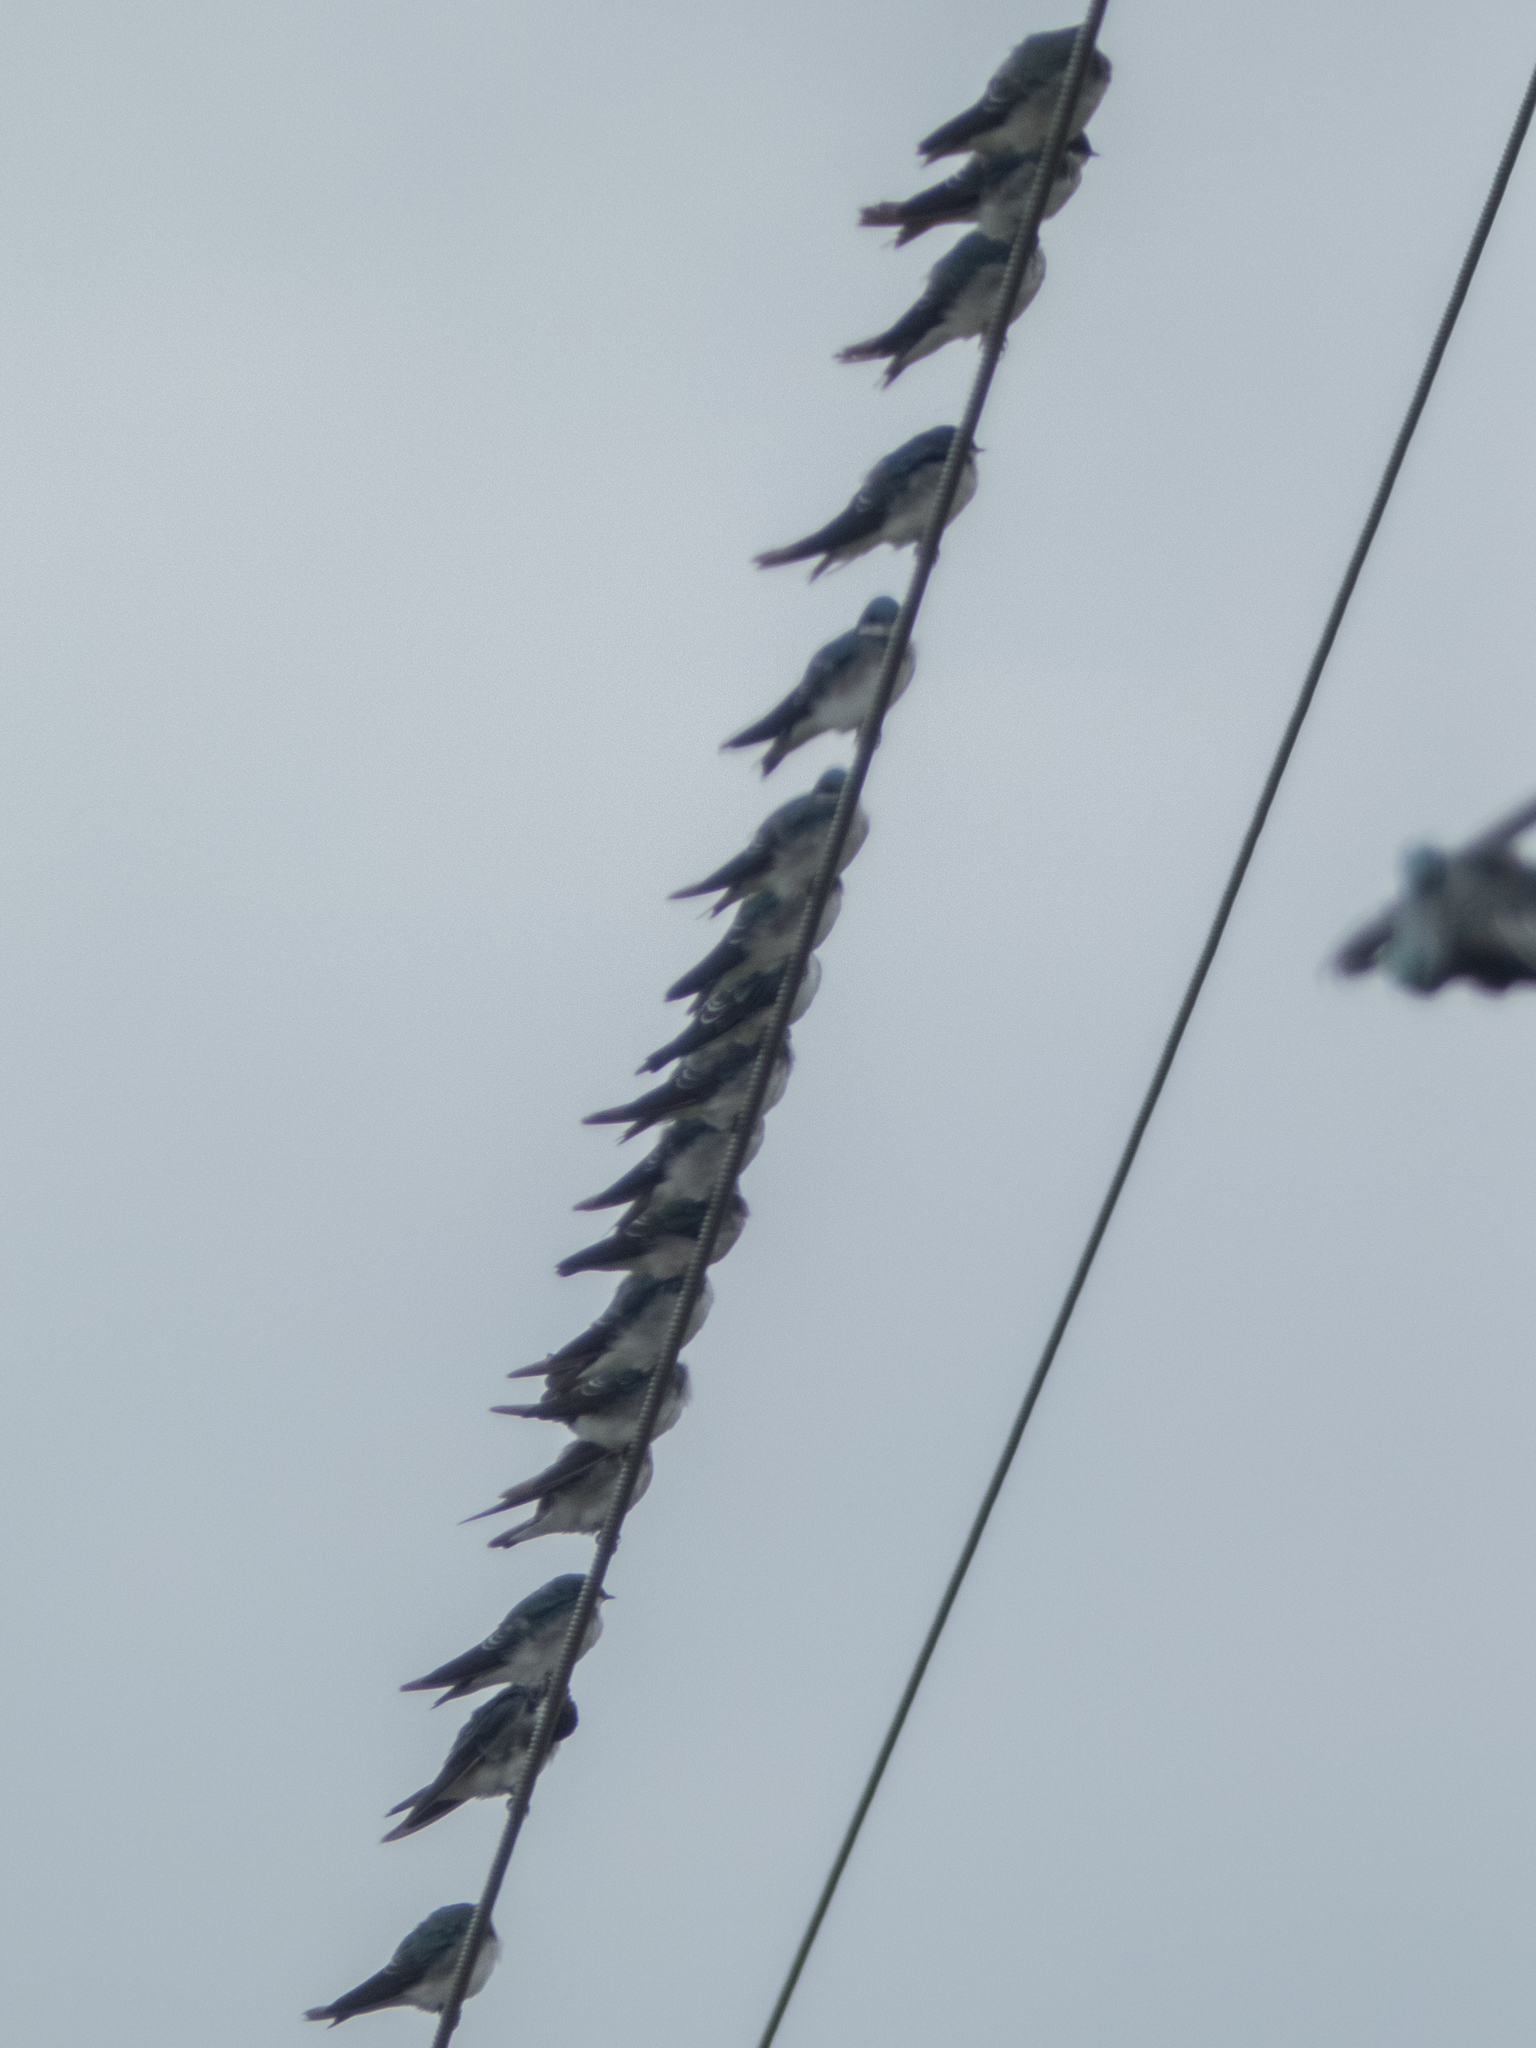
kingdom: Animalia
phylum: Chordata
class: Aves
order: Passeriformes
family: Hirundinidae
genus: Tachycineta
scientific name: Tachycineta bicolor
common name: Tree swallow
